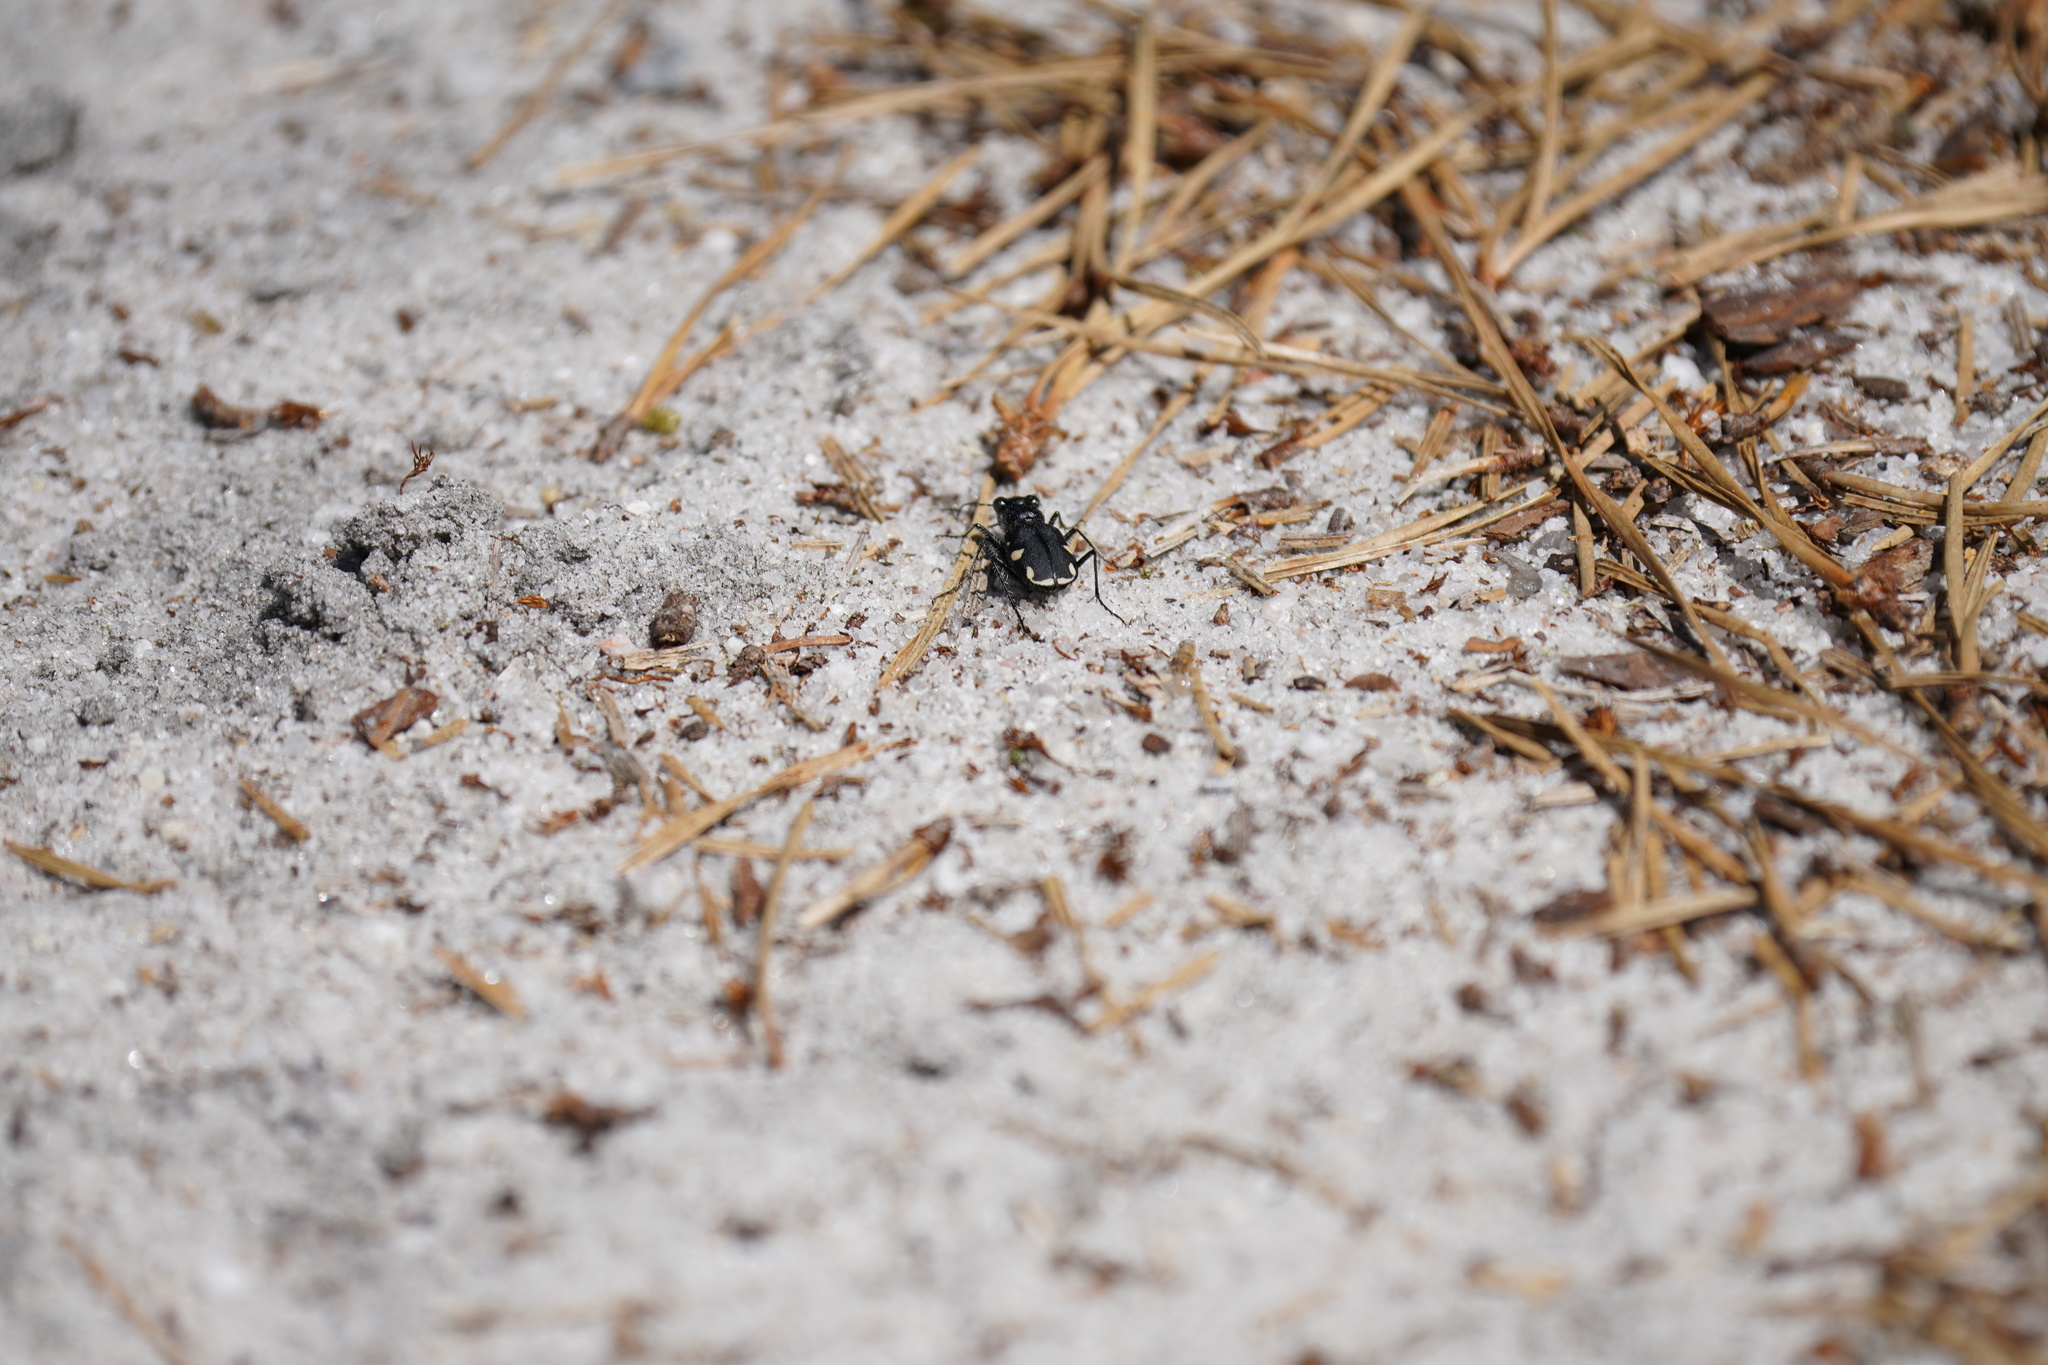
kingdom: Animalia
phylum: Arthropoda
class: Insecta
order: Coleoptera
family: Carabidae
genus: Cicindela
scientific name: Cicindela scutellaris
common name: Festive tiger beetle
